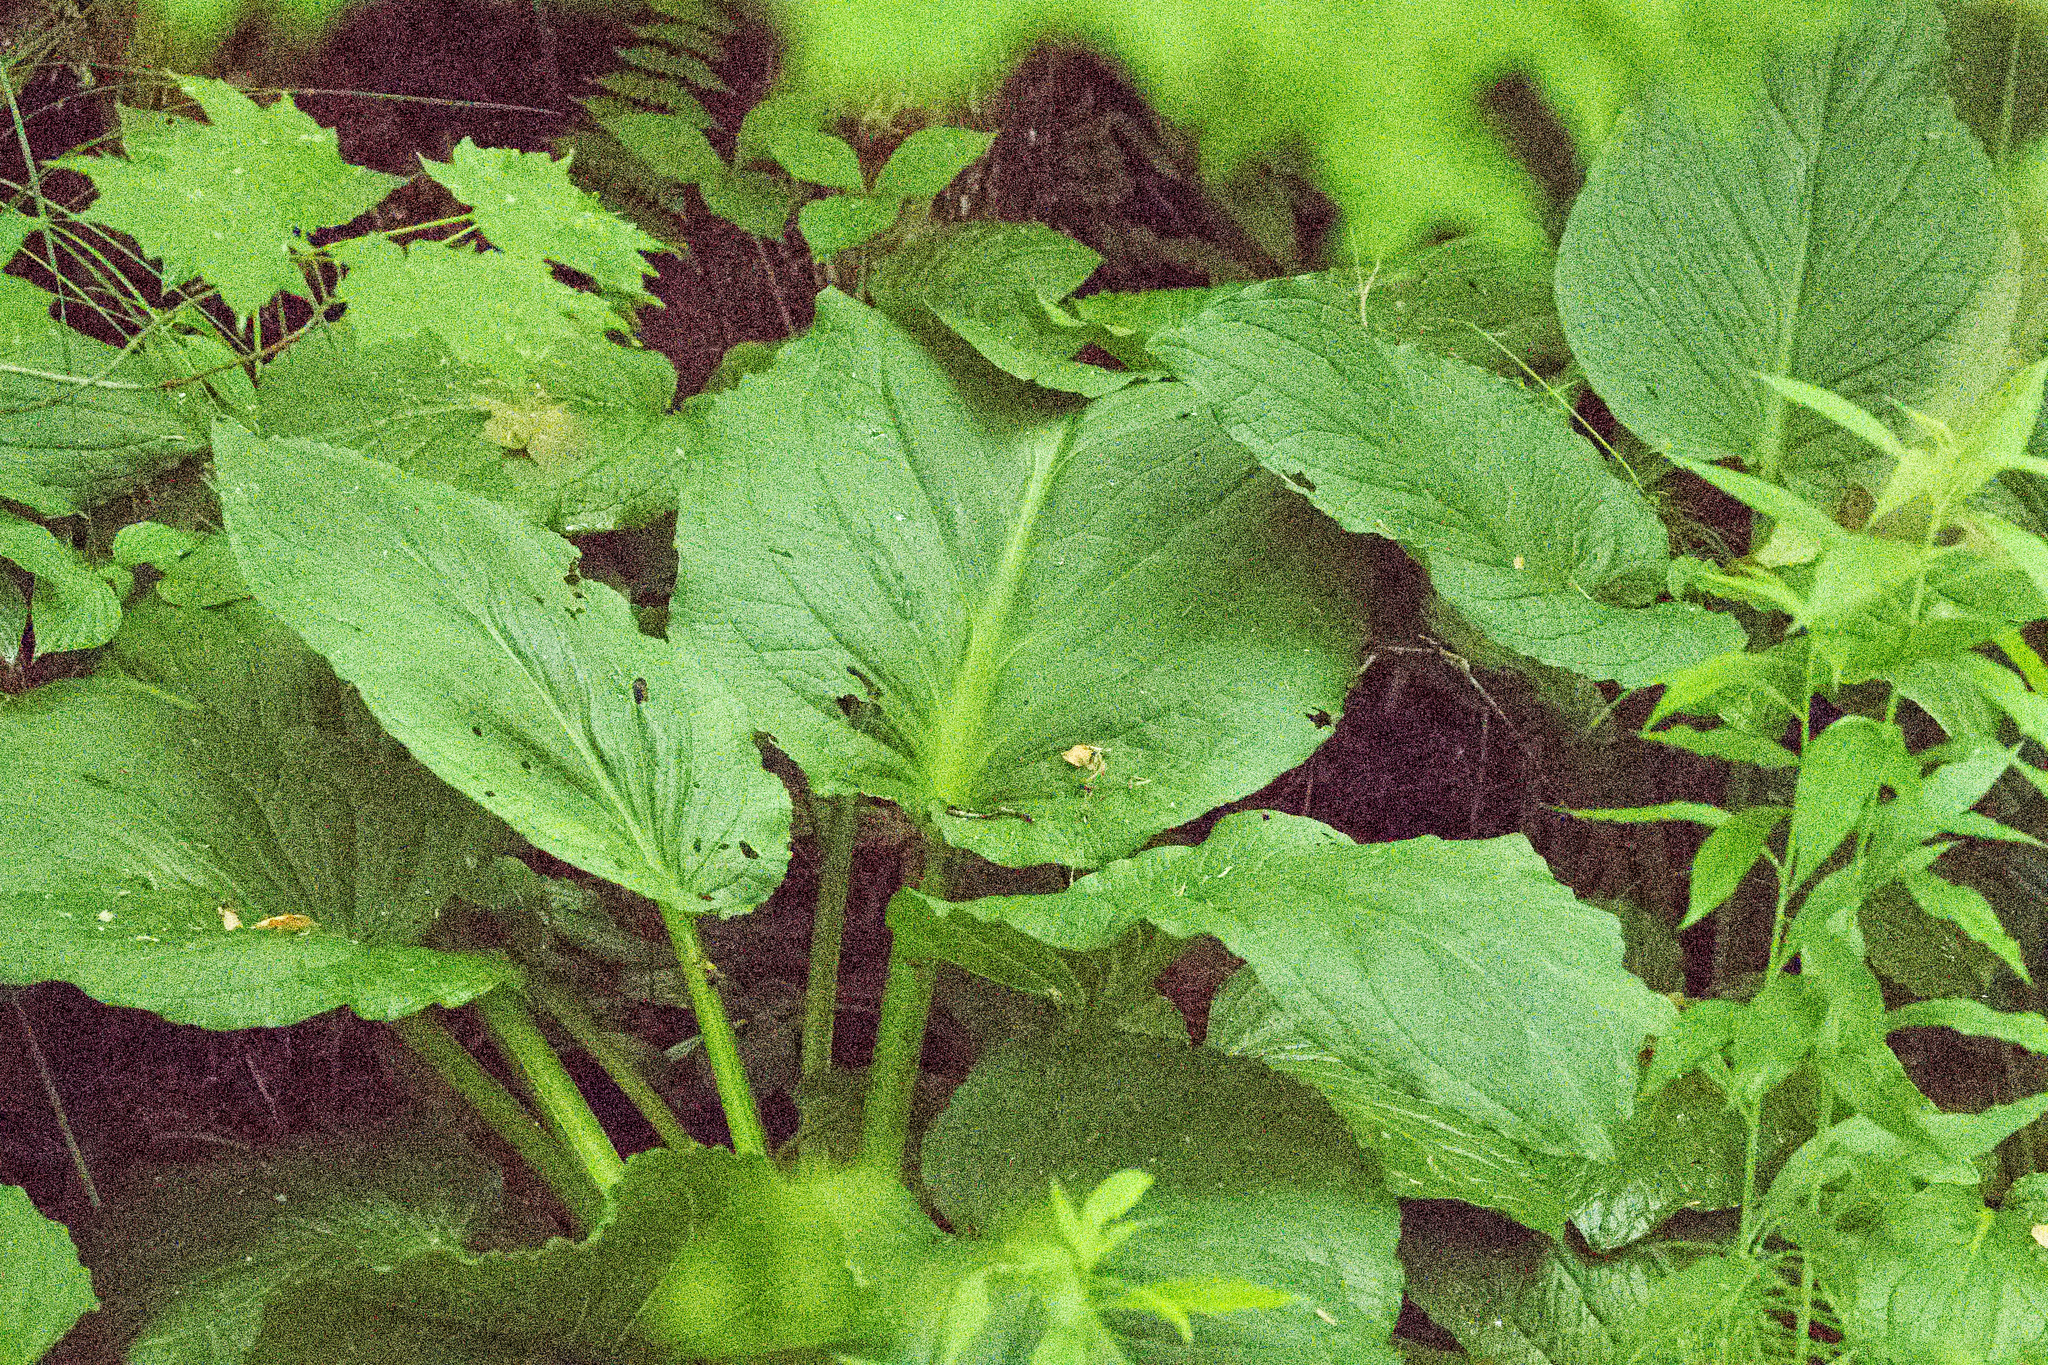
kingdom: Plantae
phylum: Tracheophyta
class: Liliopsida
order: Alismatales
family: Araceae
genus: Symplocarpus
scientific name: Symplocarpus foetidus
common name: Eastern skunk cabbage
